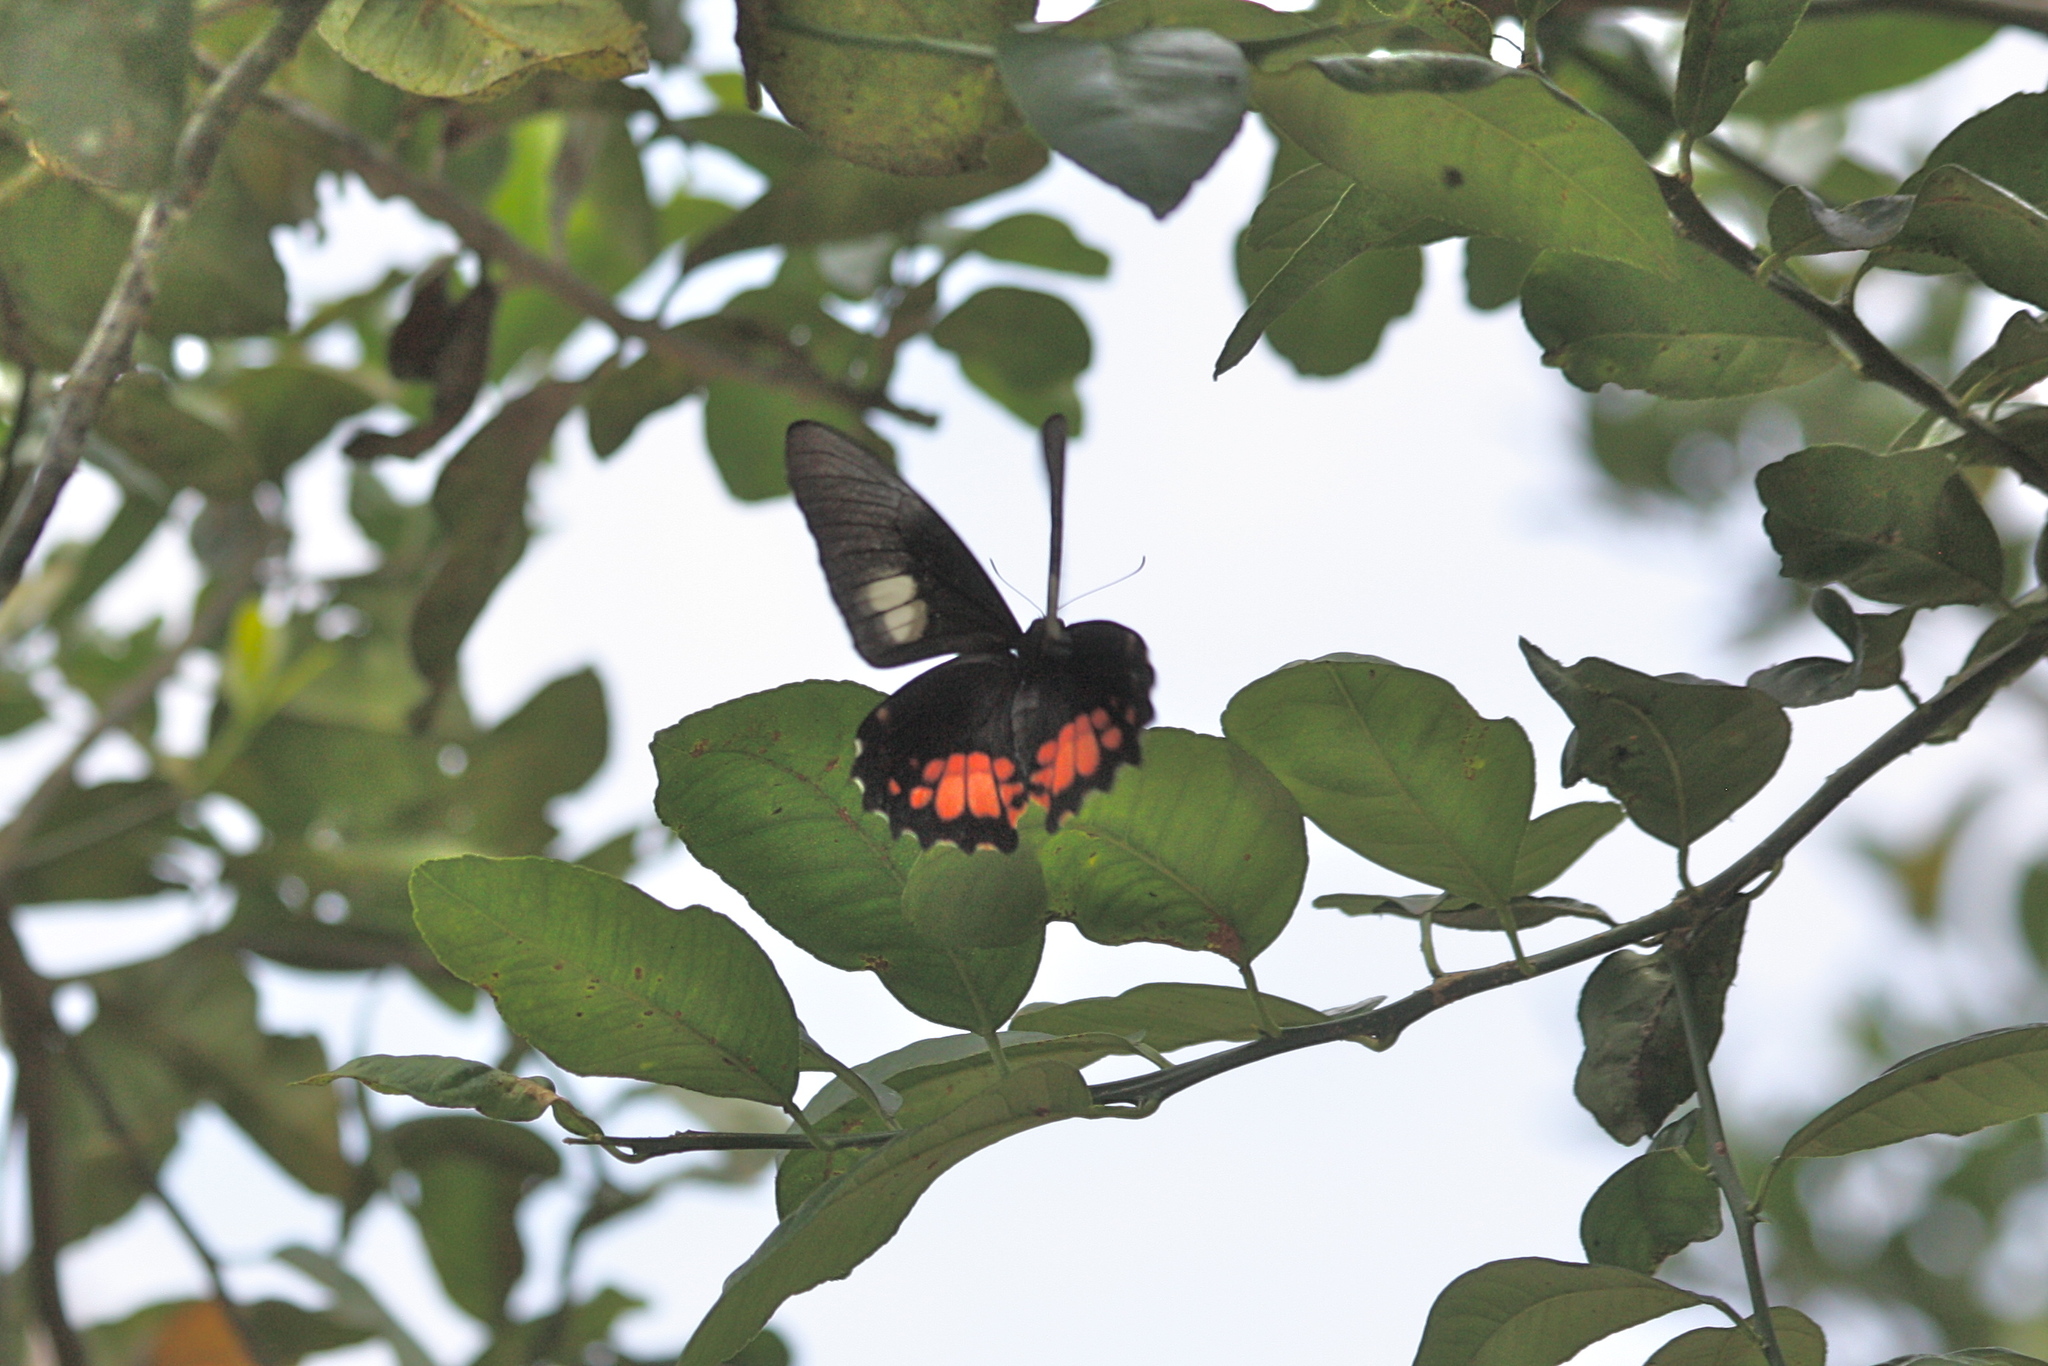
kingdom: Animalia
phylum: Arthropoda
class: Insecta
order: Lepidoptera
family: Papilionidae
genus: Papilio
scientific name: Papilio anchisiades
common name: Idaes swallowtail
